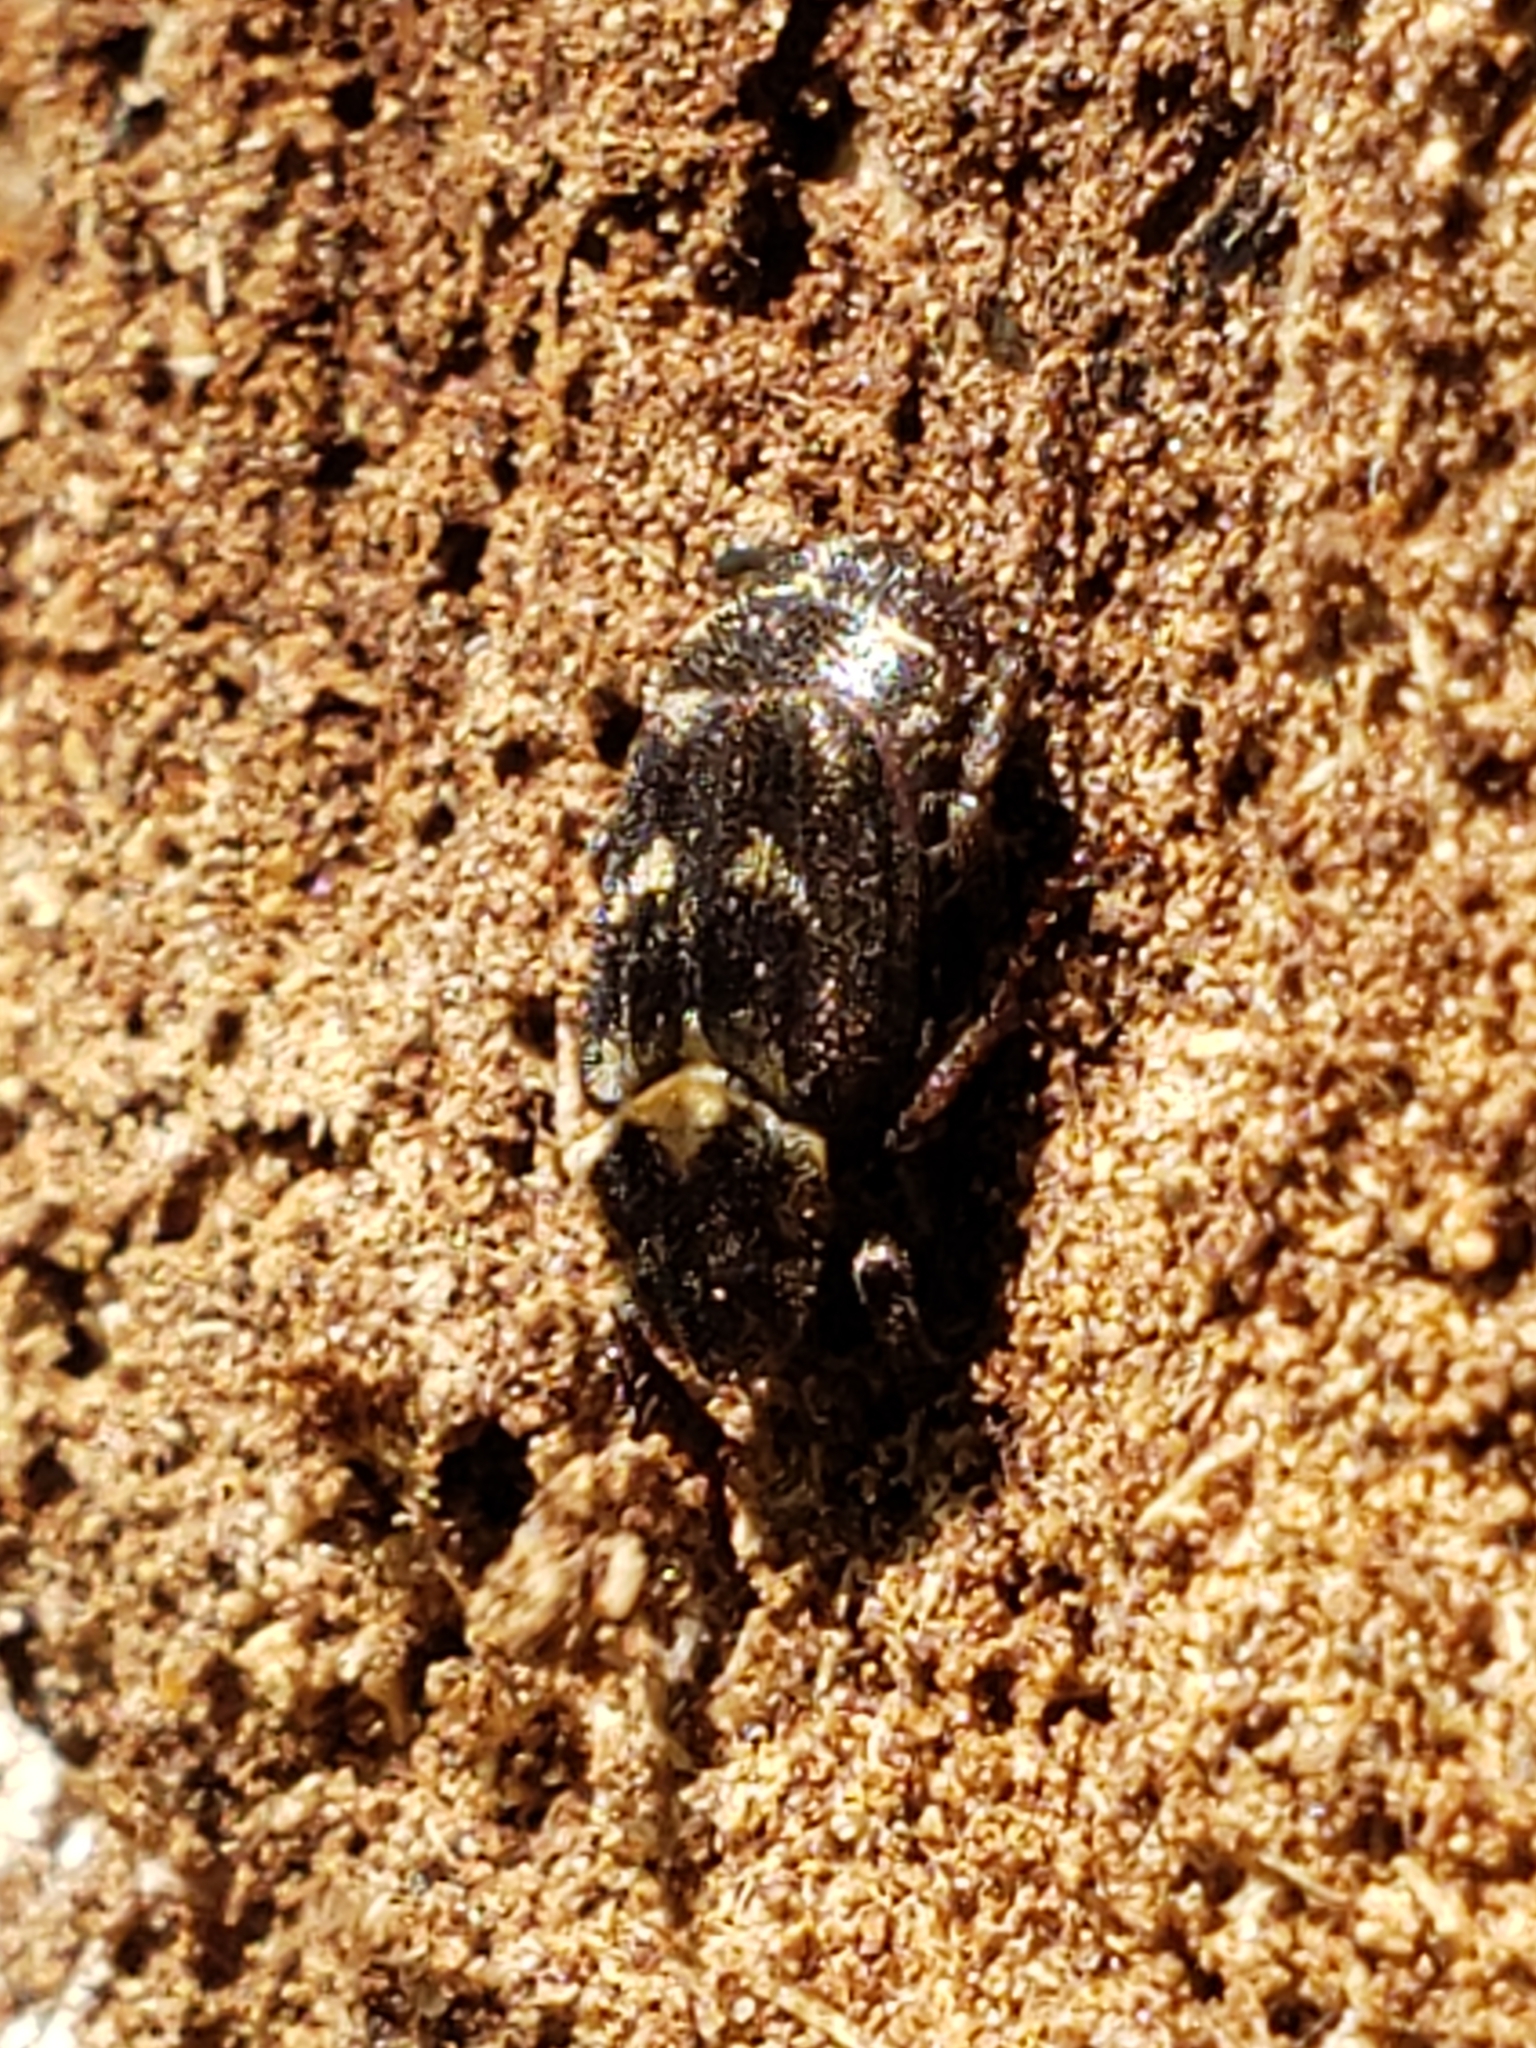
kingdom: Animalia
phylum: Arthropoda
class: Insecta
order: Coleoptera
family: Scarabaeidae
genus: Valgus
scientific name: Valgus seticollis
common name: Bristly-necked valgus
